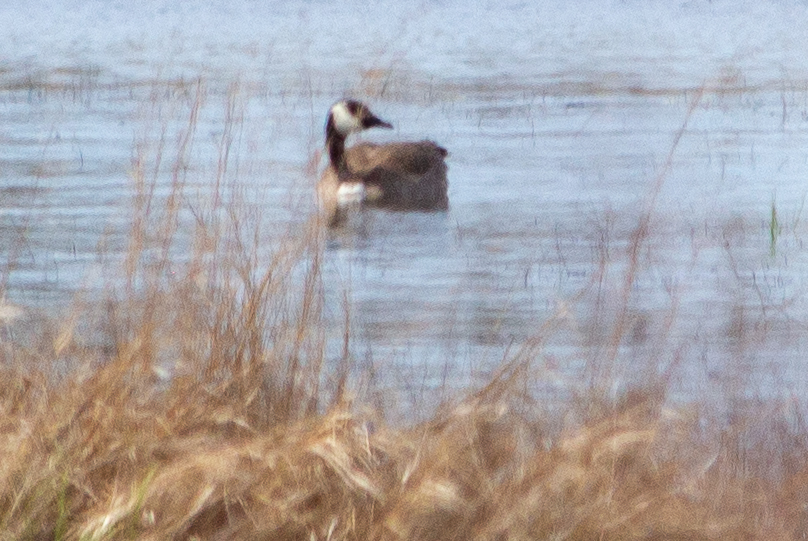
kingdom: Animalia
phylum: Chordata
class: Aves
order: Anseriformes
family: Anatidae
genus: Branta
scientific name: Branta canadensis
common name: Canada goose
